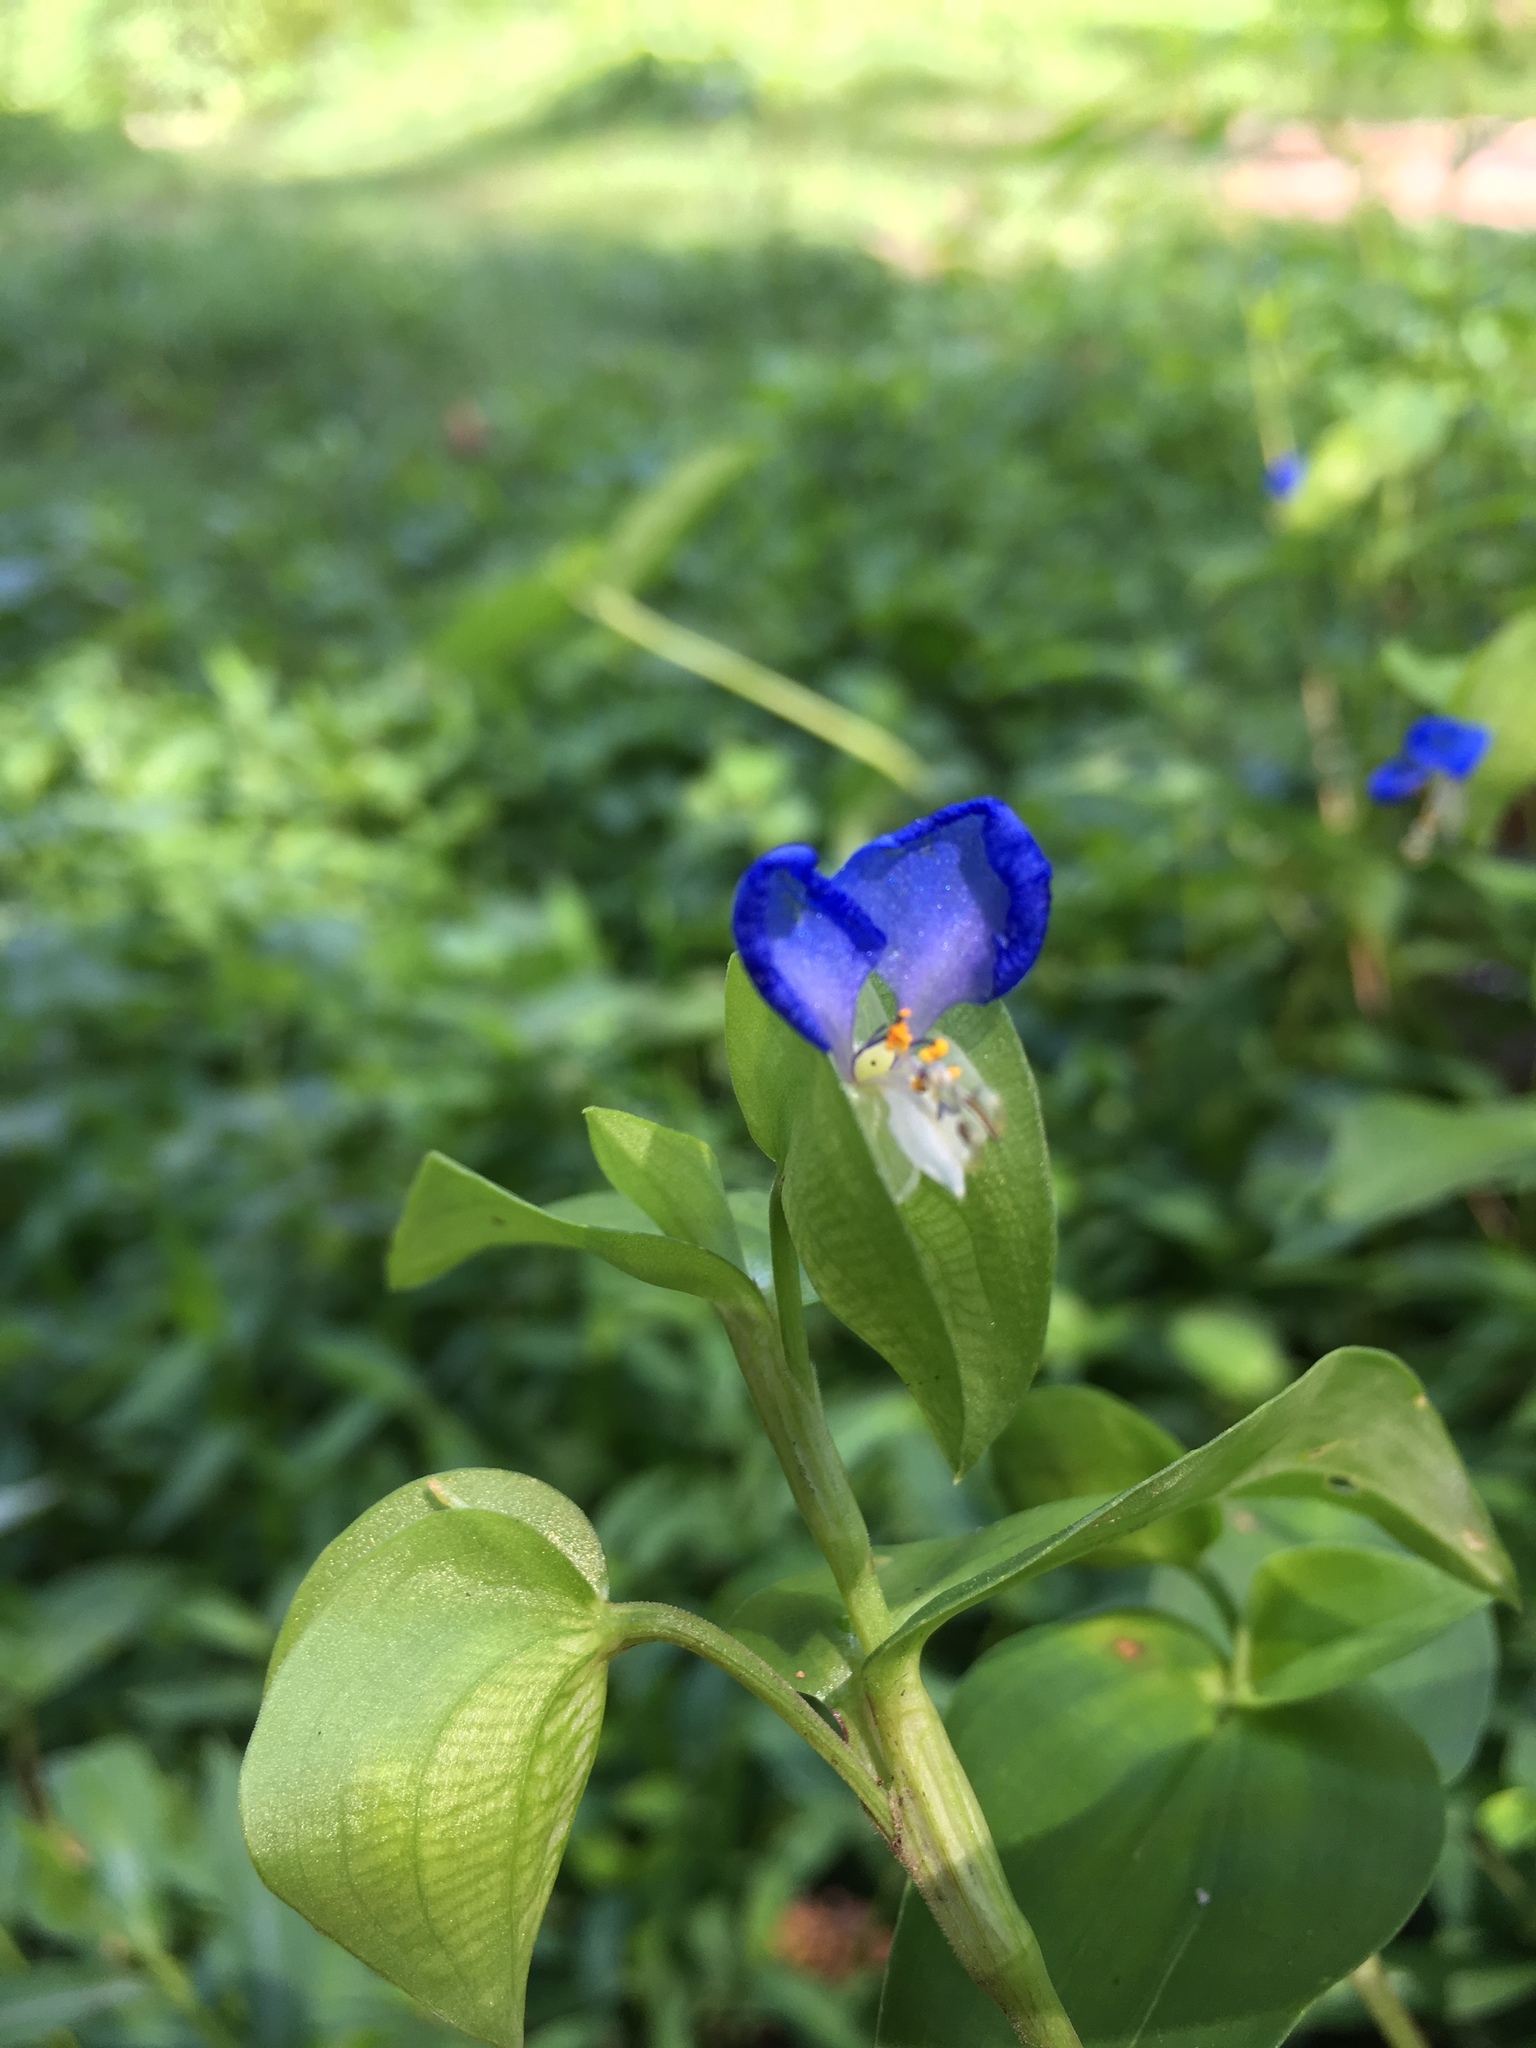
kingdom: Plantae
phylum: Tracheophyta
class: Liliopsida
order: Commelinales
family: Commelinaceae
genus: Commelina
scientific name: Commelina communis
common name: Asiatic dayflower
